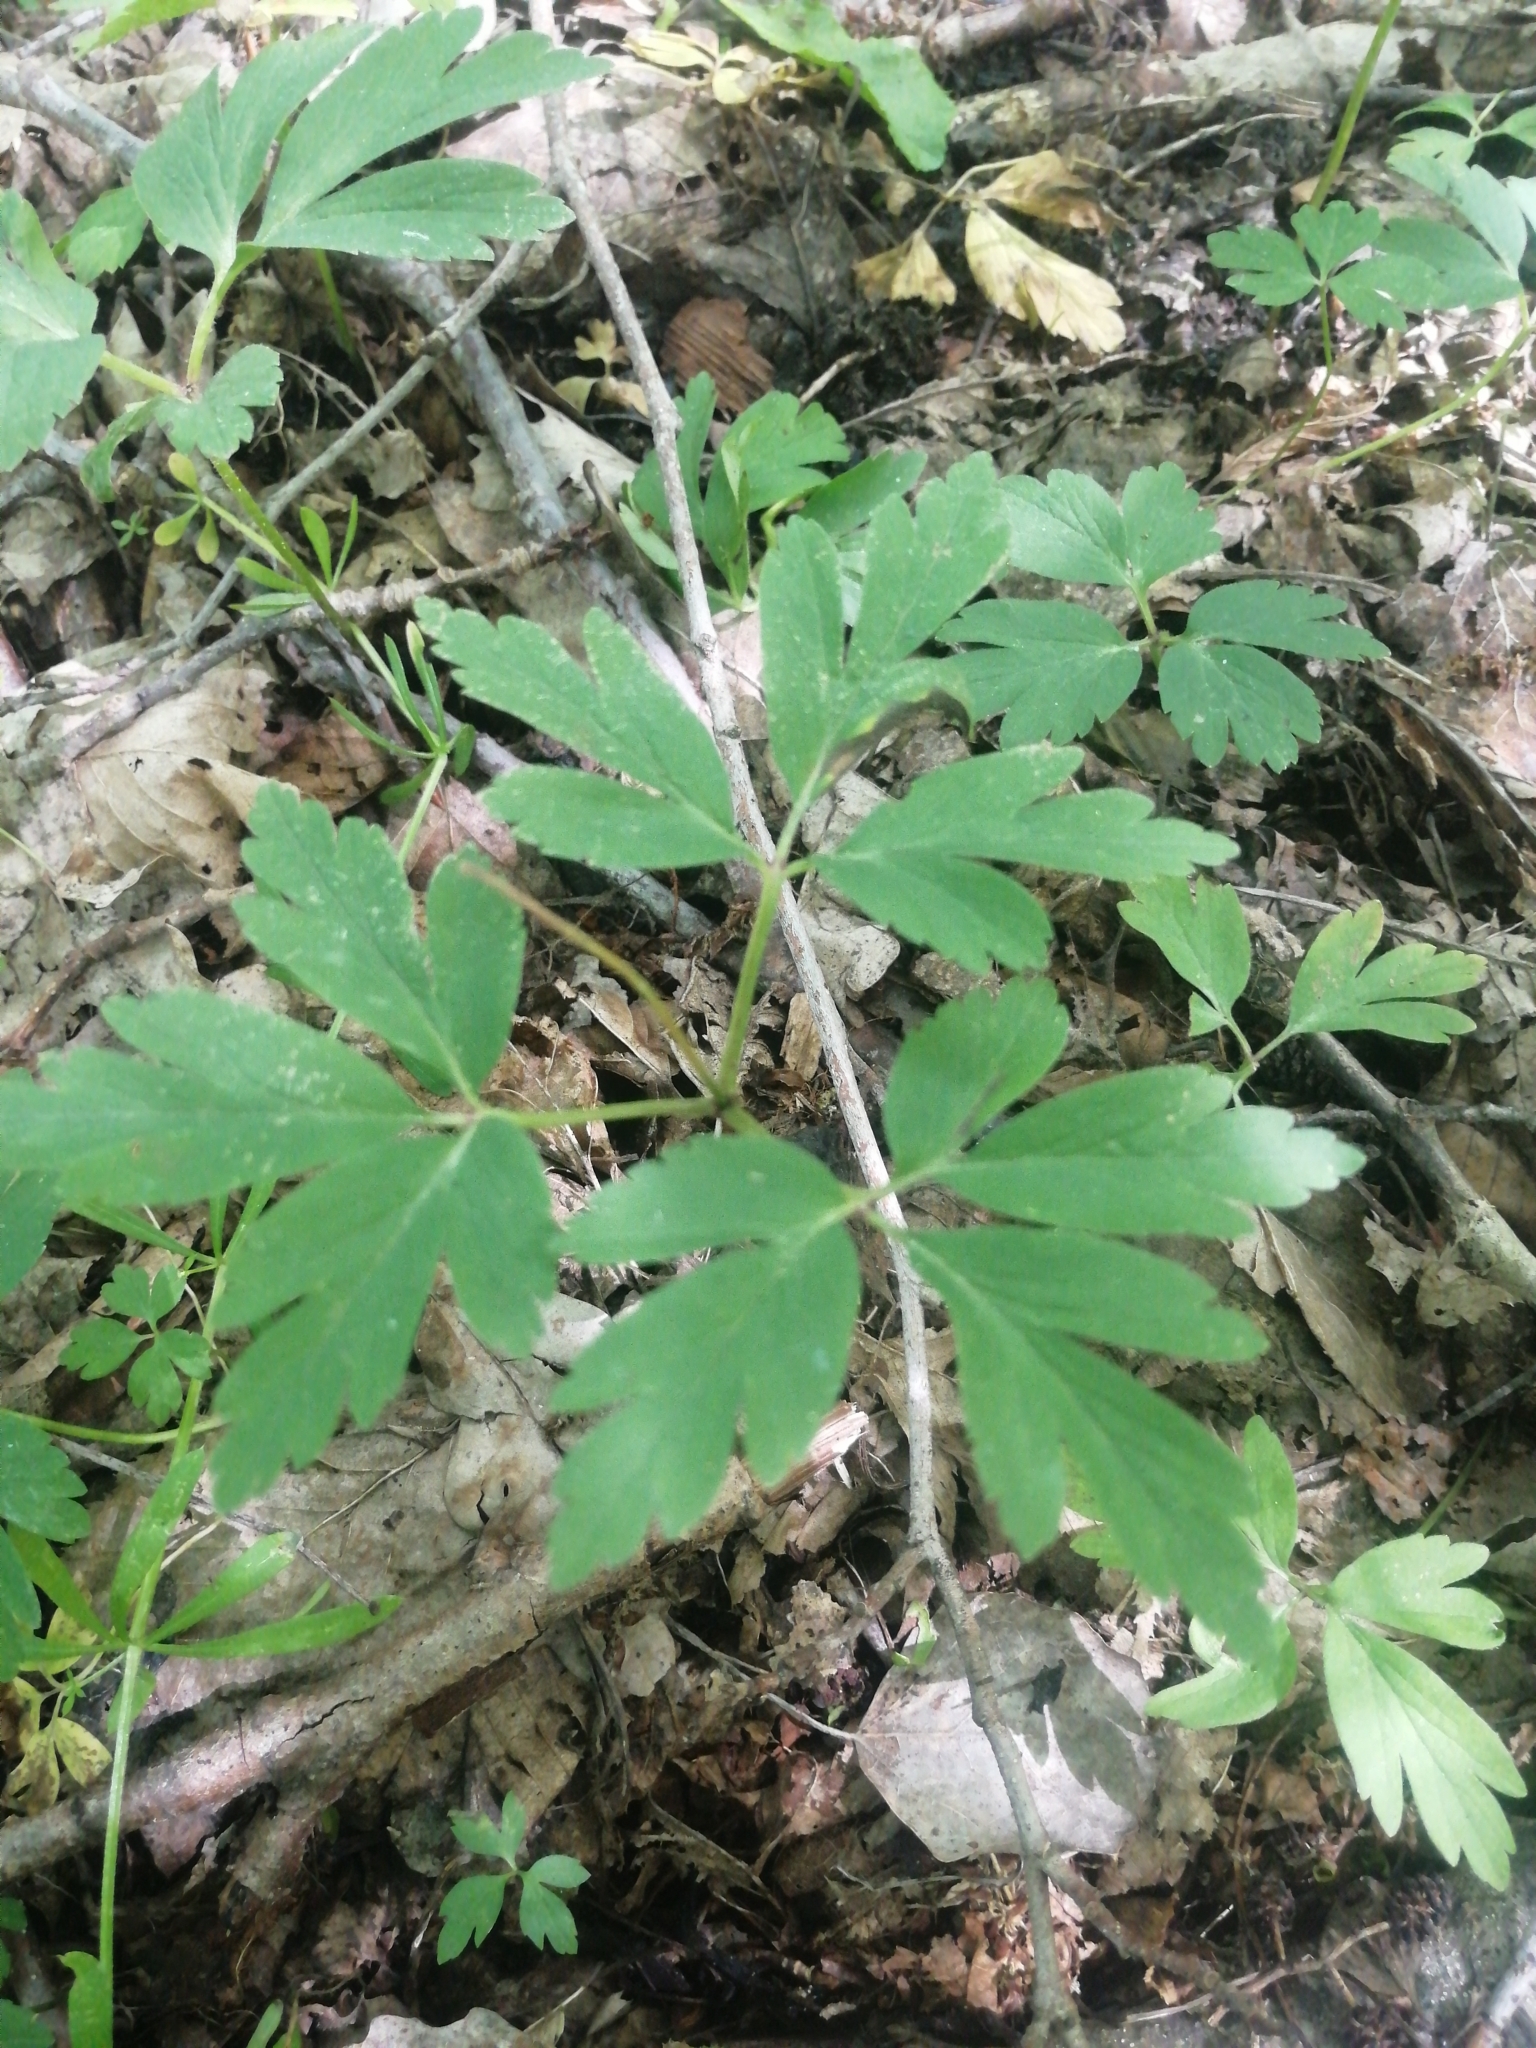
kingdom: Plantae
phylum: Tracheophyta
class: Magnoliopsida
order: Ranunculales
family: Ranunculaceae
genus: Anemone
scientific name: Anemone nemorosa
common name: Wood anemone
